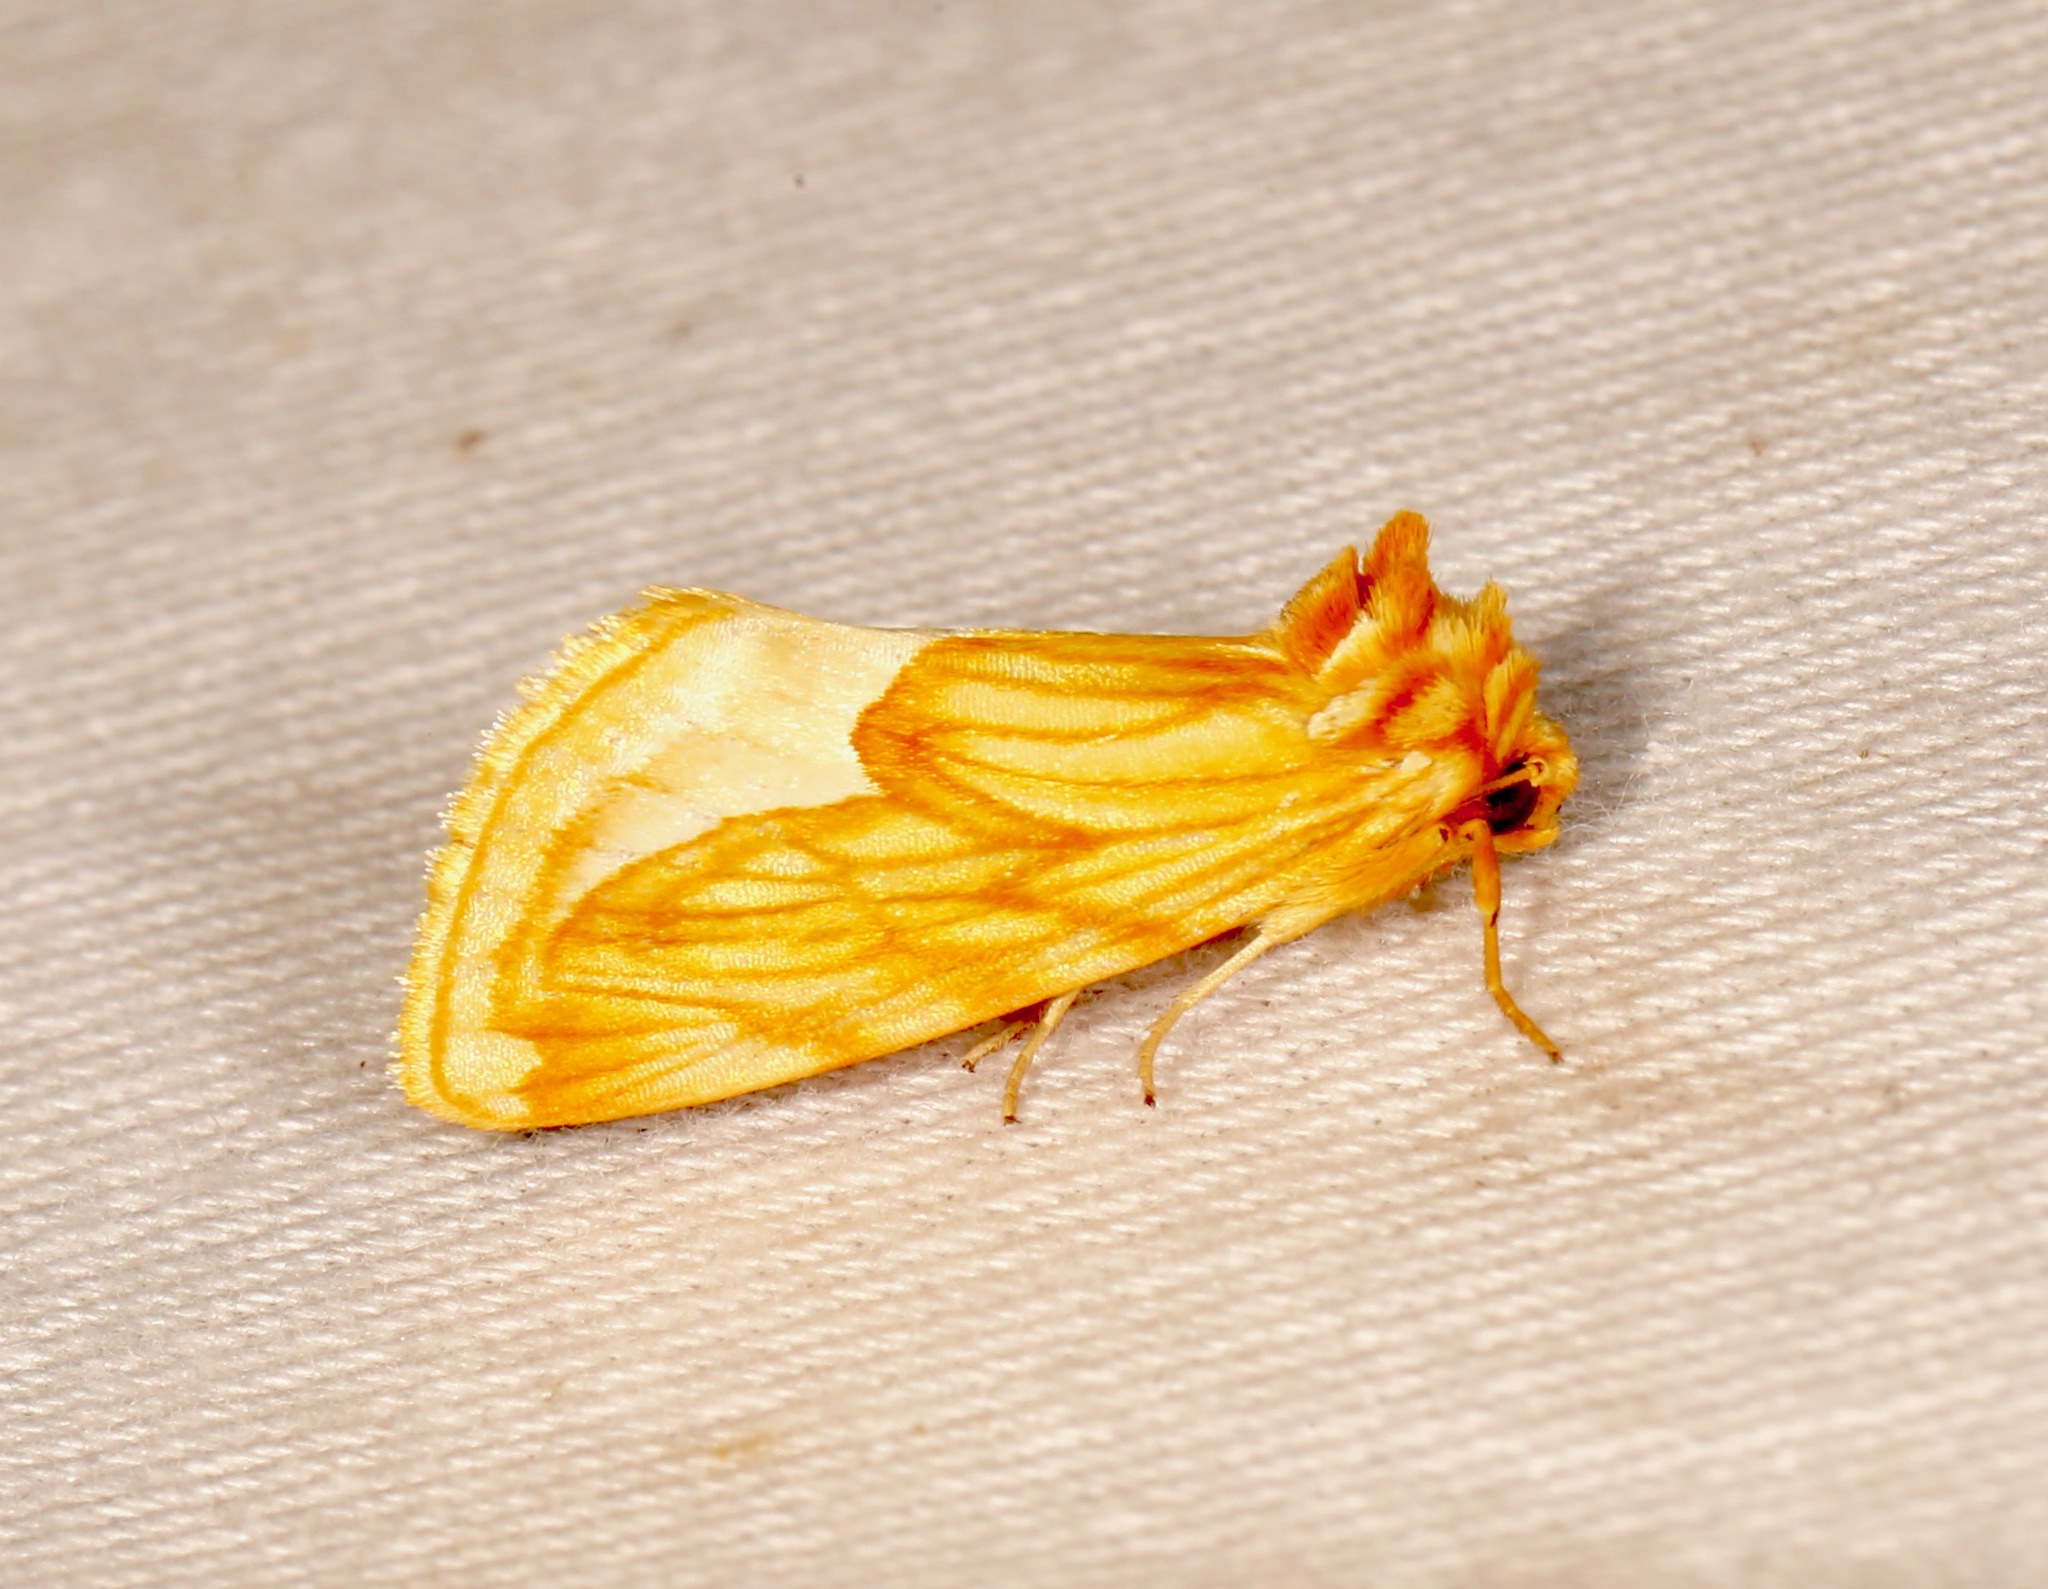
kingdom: Animalia
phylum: Arthropoda
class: Insecta
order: Lepidoptera
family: Noctuidae
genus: Cirrhophanus
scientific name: Cirrhophanus dyari
